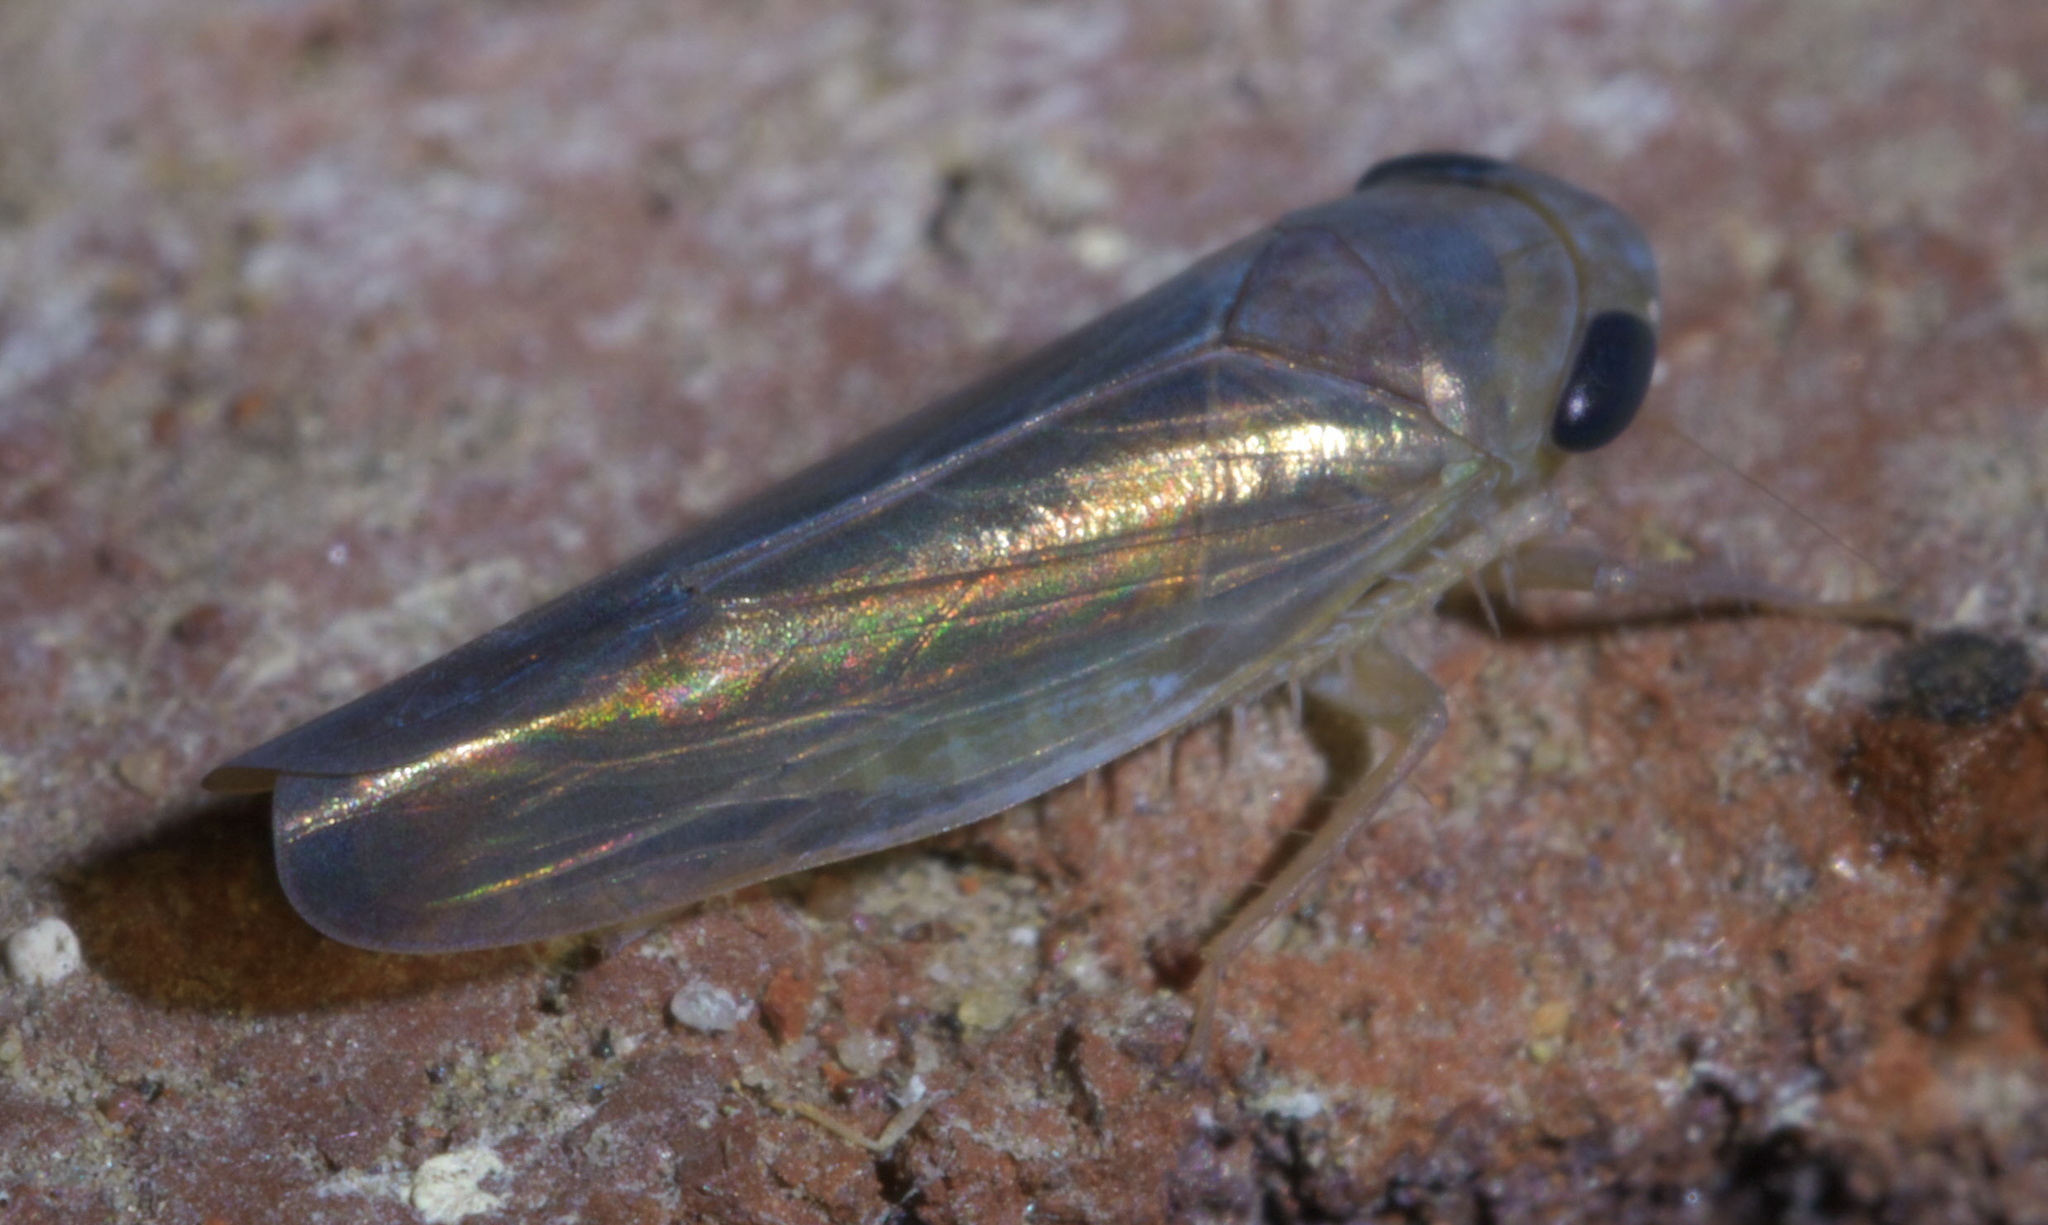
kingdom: Animalia
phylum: Arthropoda
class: Insecta
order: Hemiptera
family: Cicadellidae
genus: Chlorotettix
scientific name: Chlorotettix tergatus
